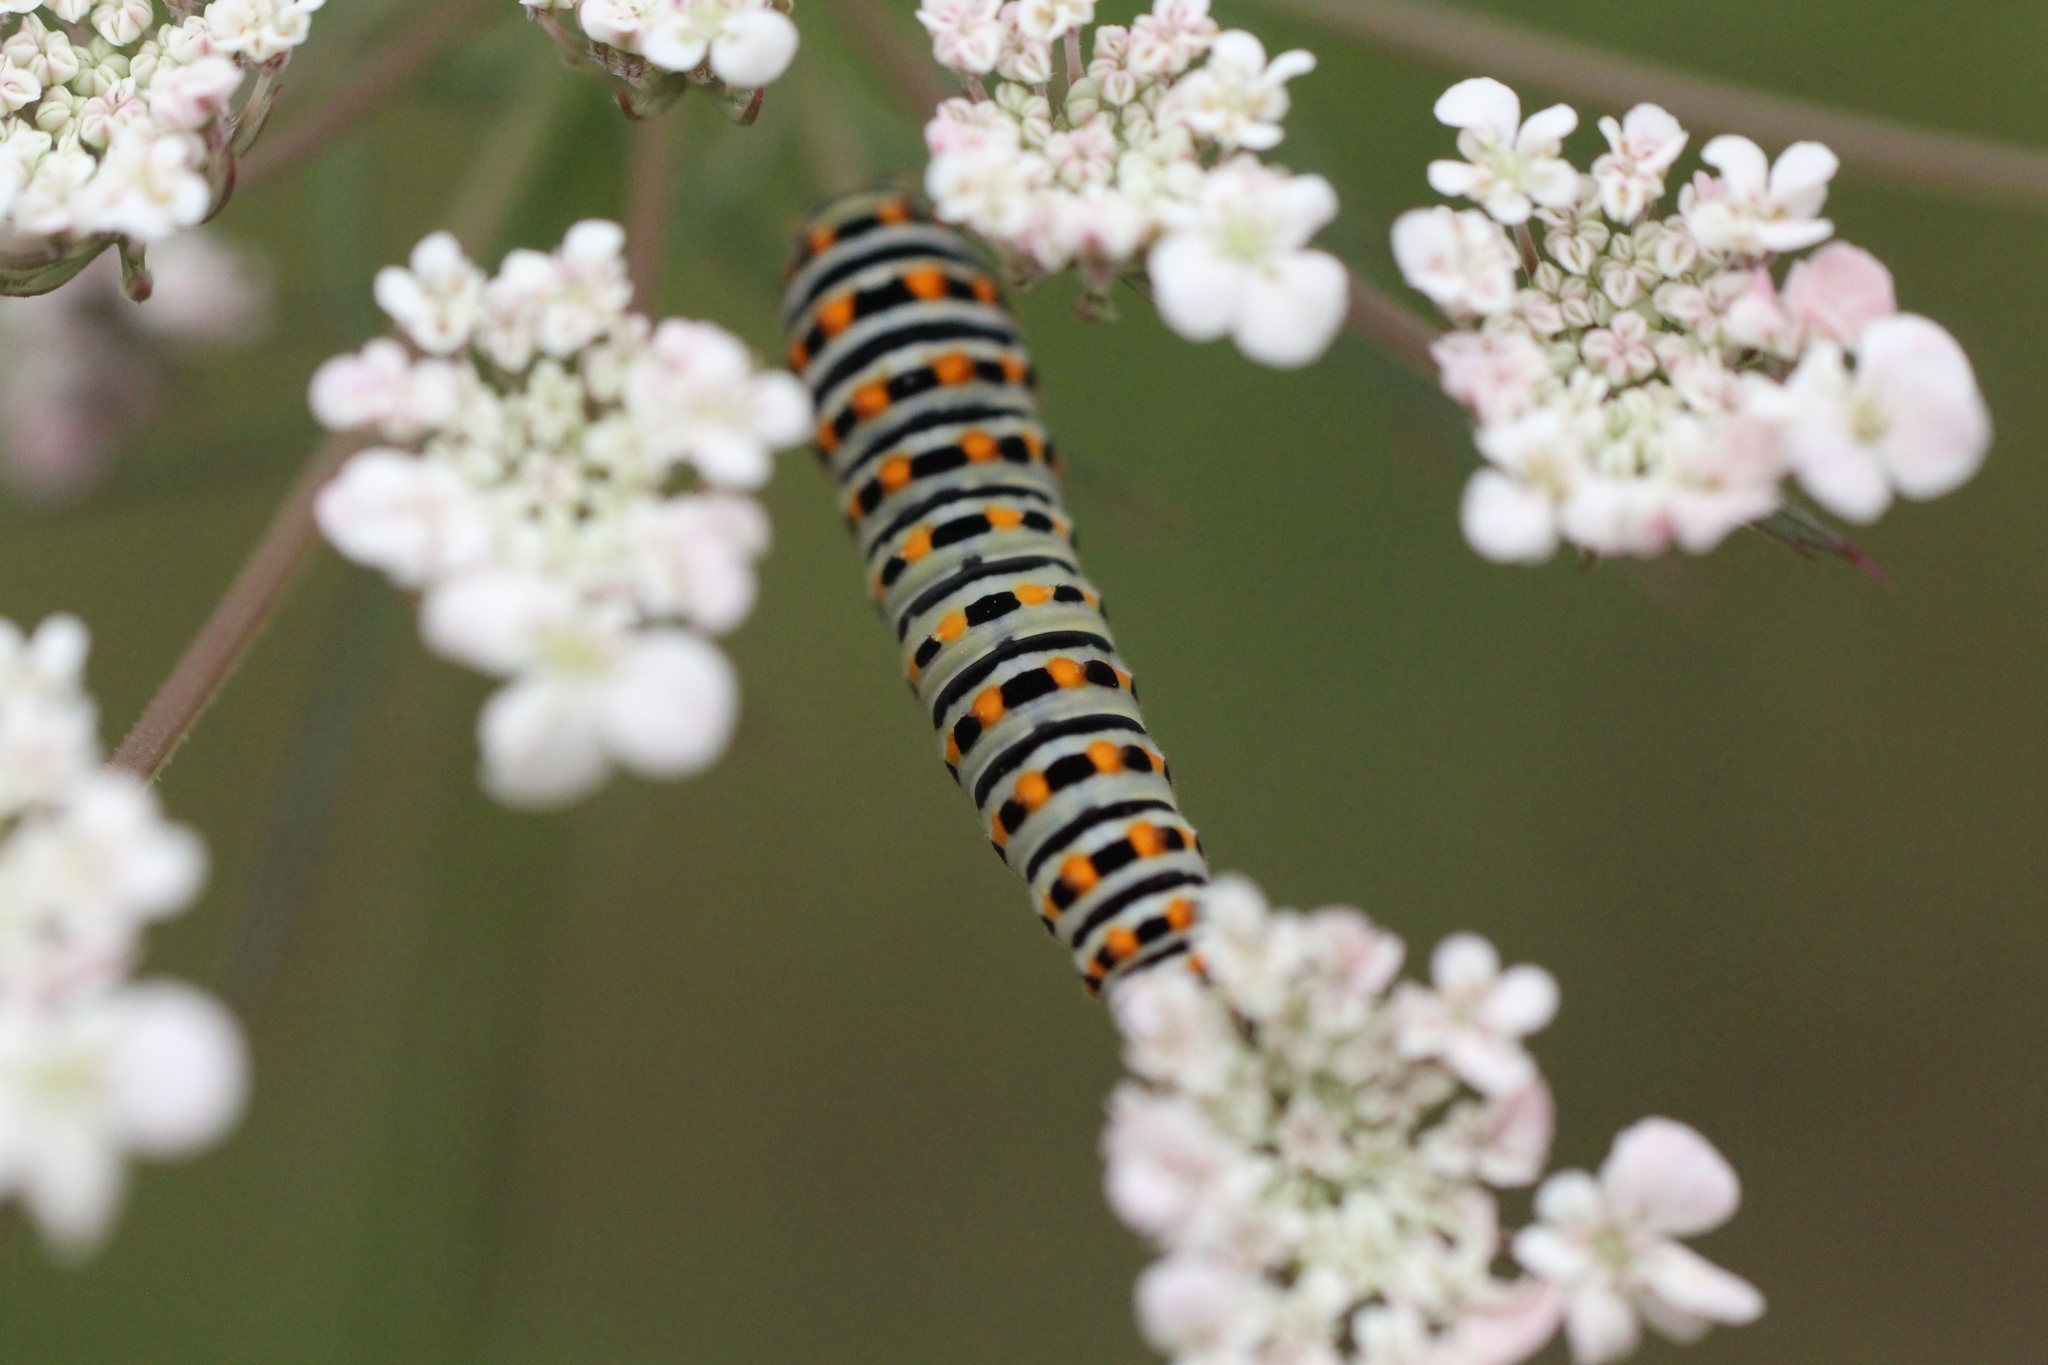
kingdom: Animalia
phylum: Arthropoda
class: Insecta
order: Lepidoptera
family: Papilionidae
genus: Papilio
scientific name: Papilio machaon
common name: Swallowtail
